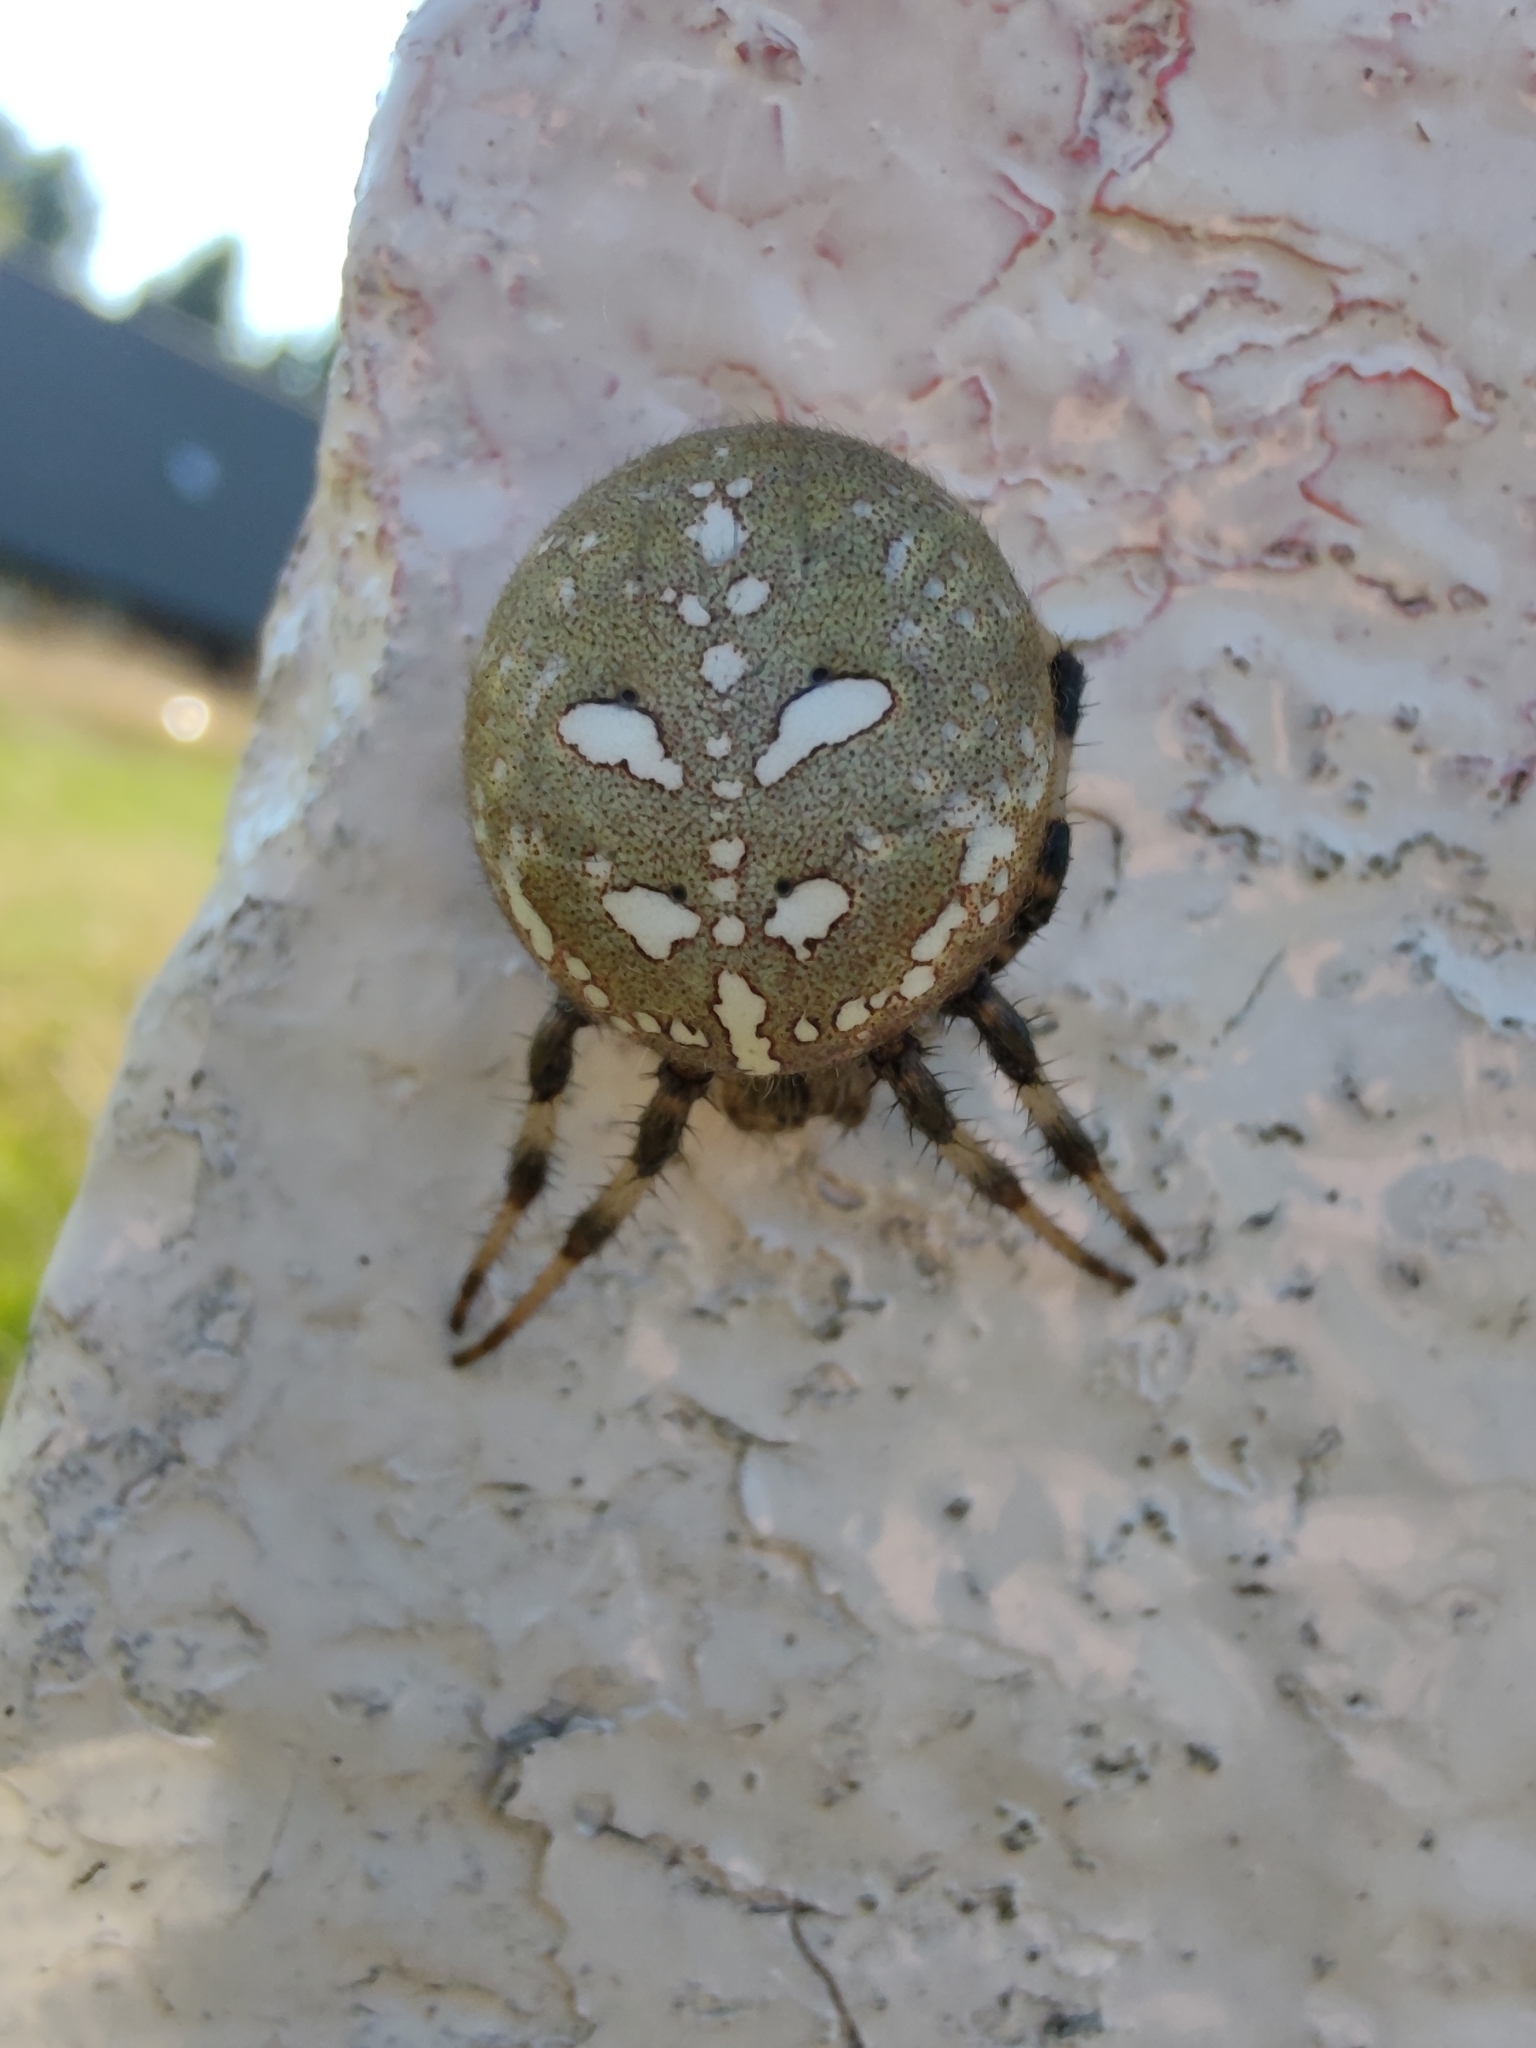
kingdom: Animalia
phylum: Arthropoda
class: Arachnida
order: Araneae
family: Araneidae
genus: Araneus
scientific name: Araneus quadratus
